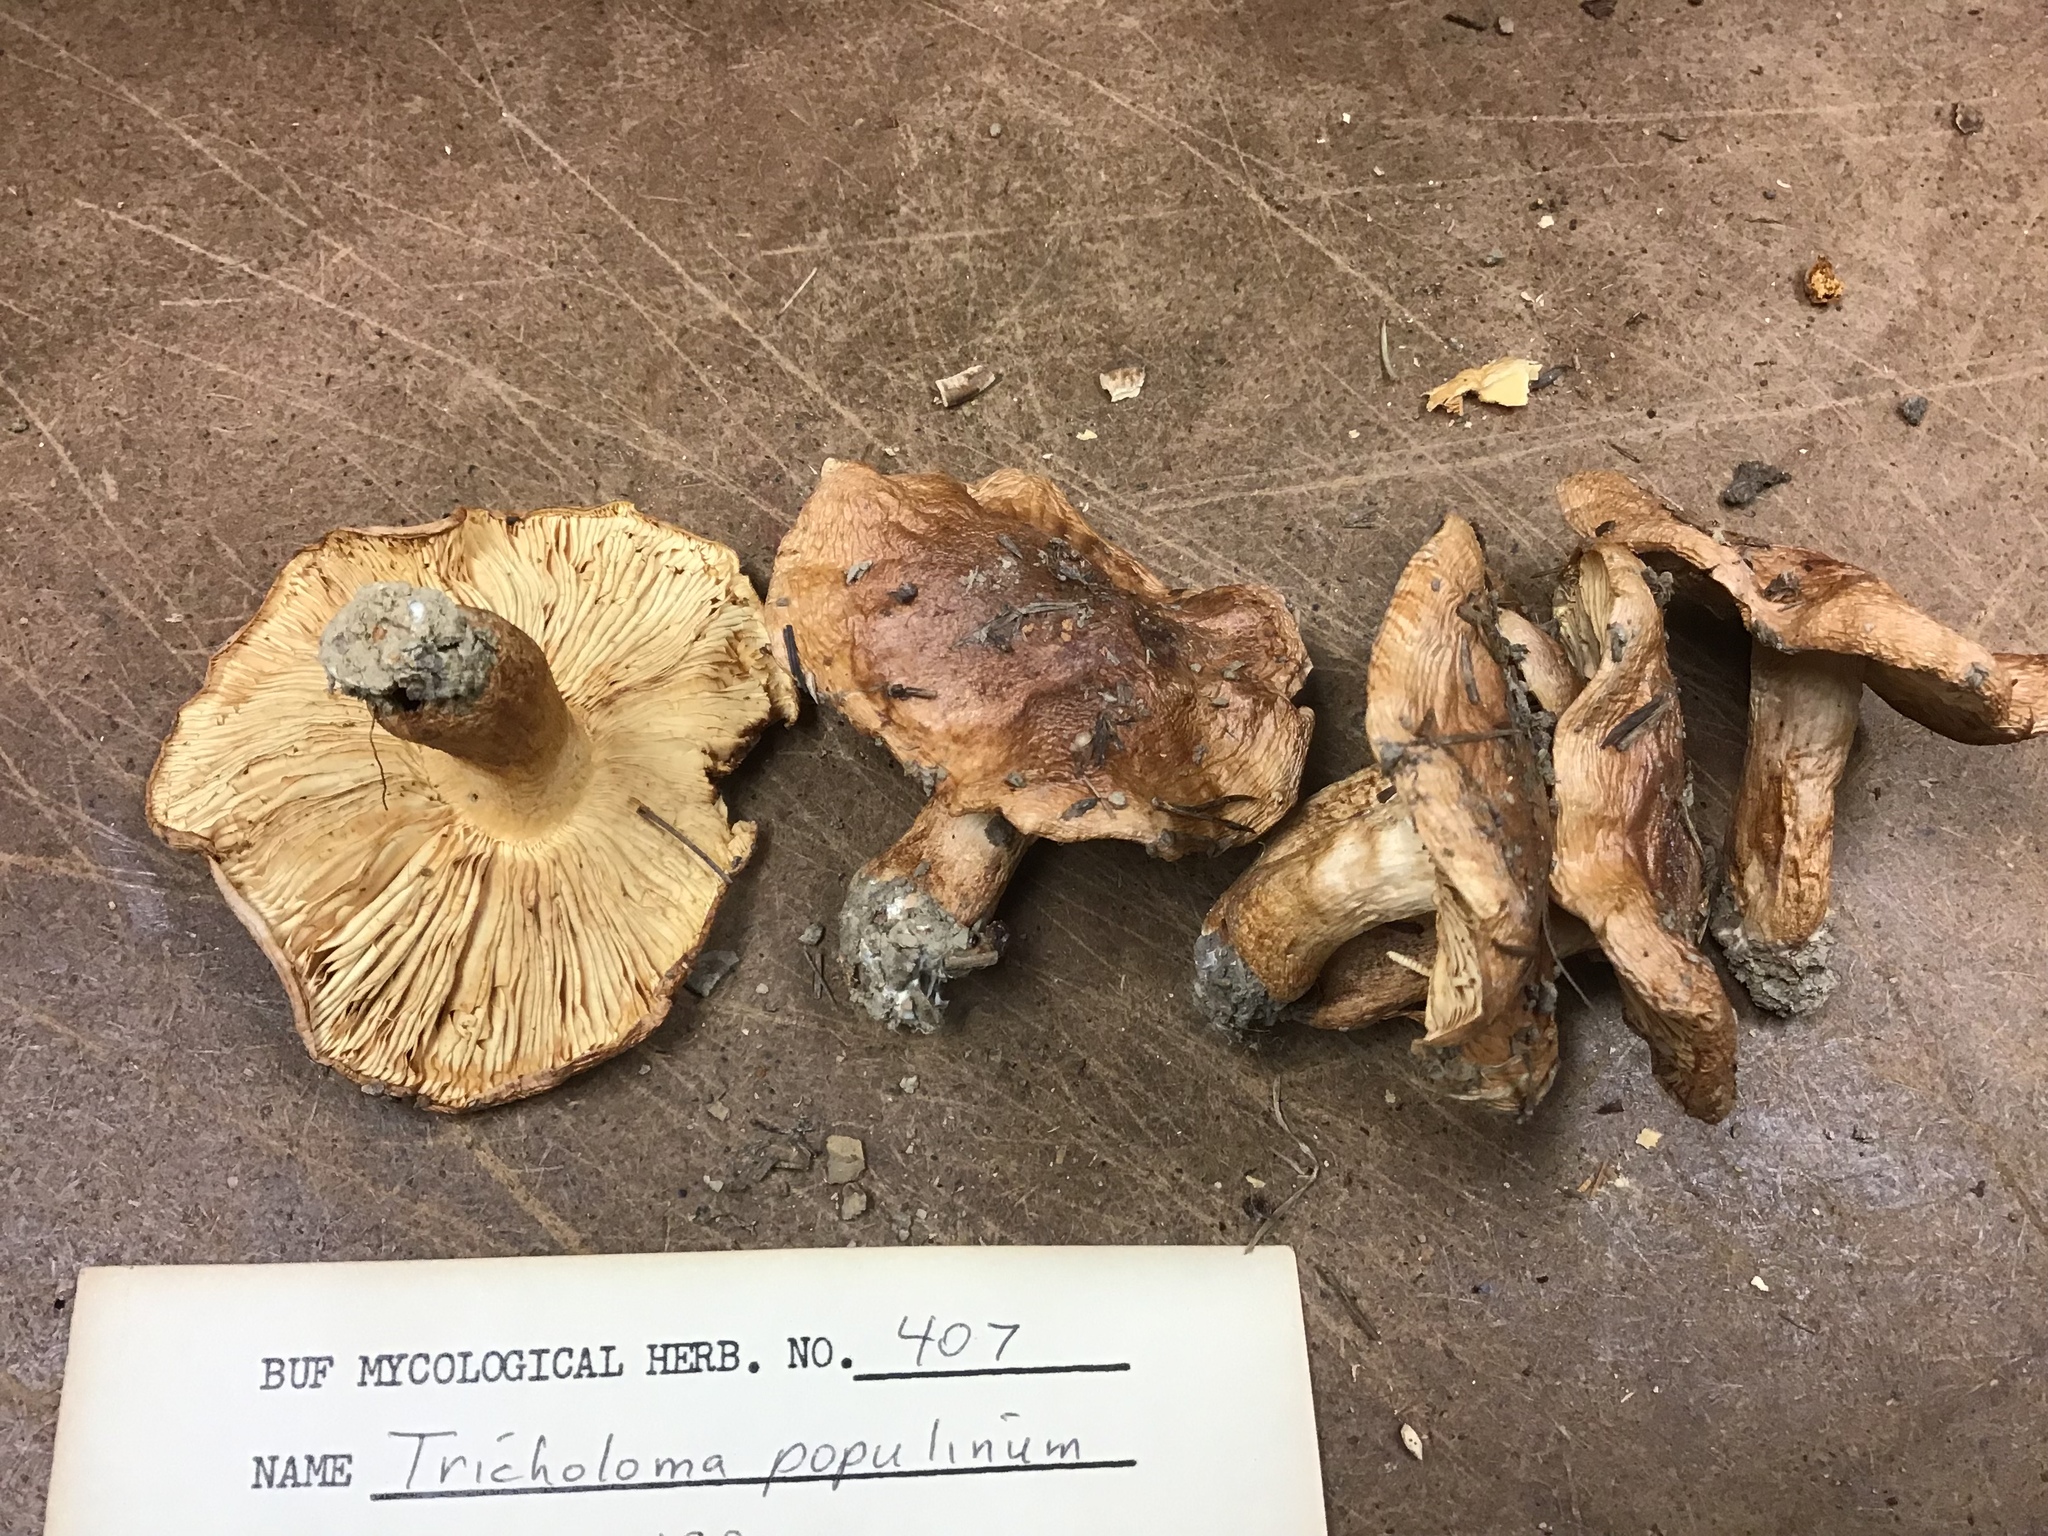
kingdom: Fungi
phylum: Basidiomycota
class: Agaricomycetes
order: Agaricales
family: Tricholomataceae
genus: Tricholoma
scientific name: Tricholoma populinum
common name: Poplar knight
